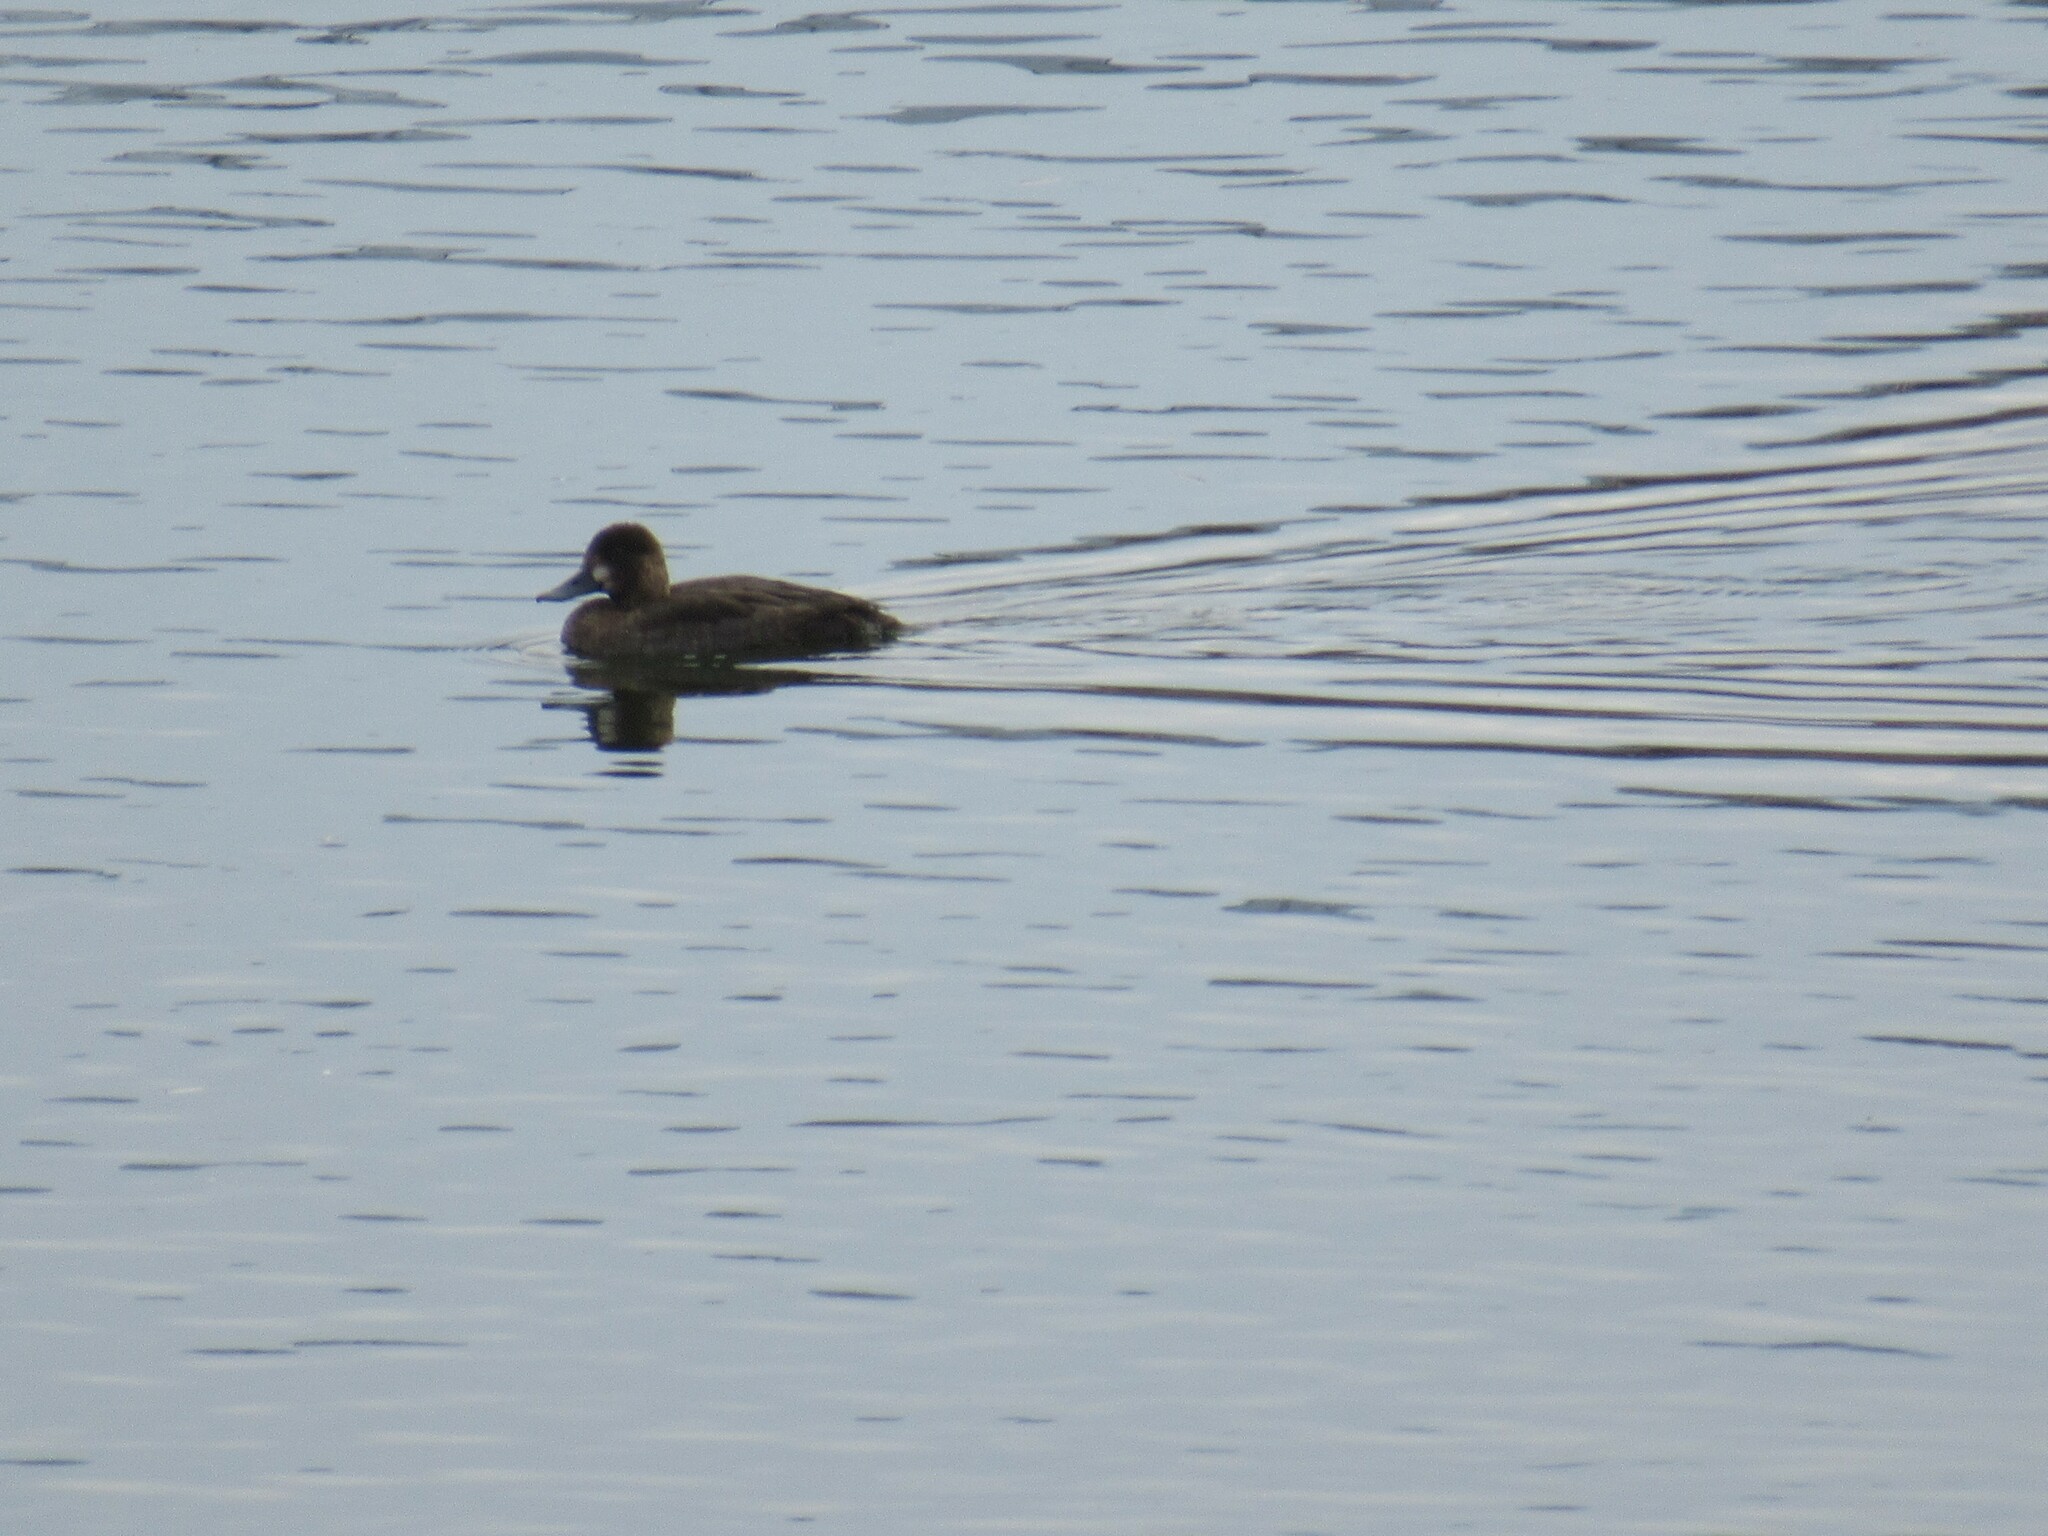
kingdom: Animalia
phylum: Chordata
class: Aves
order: Anseriformes
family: Anatidae
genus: Aythya
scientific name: Aythya marila
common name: Greater scaup
